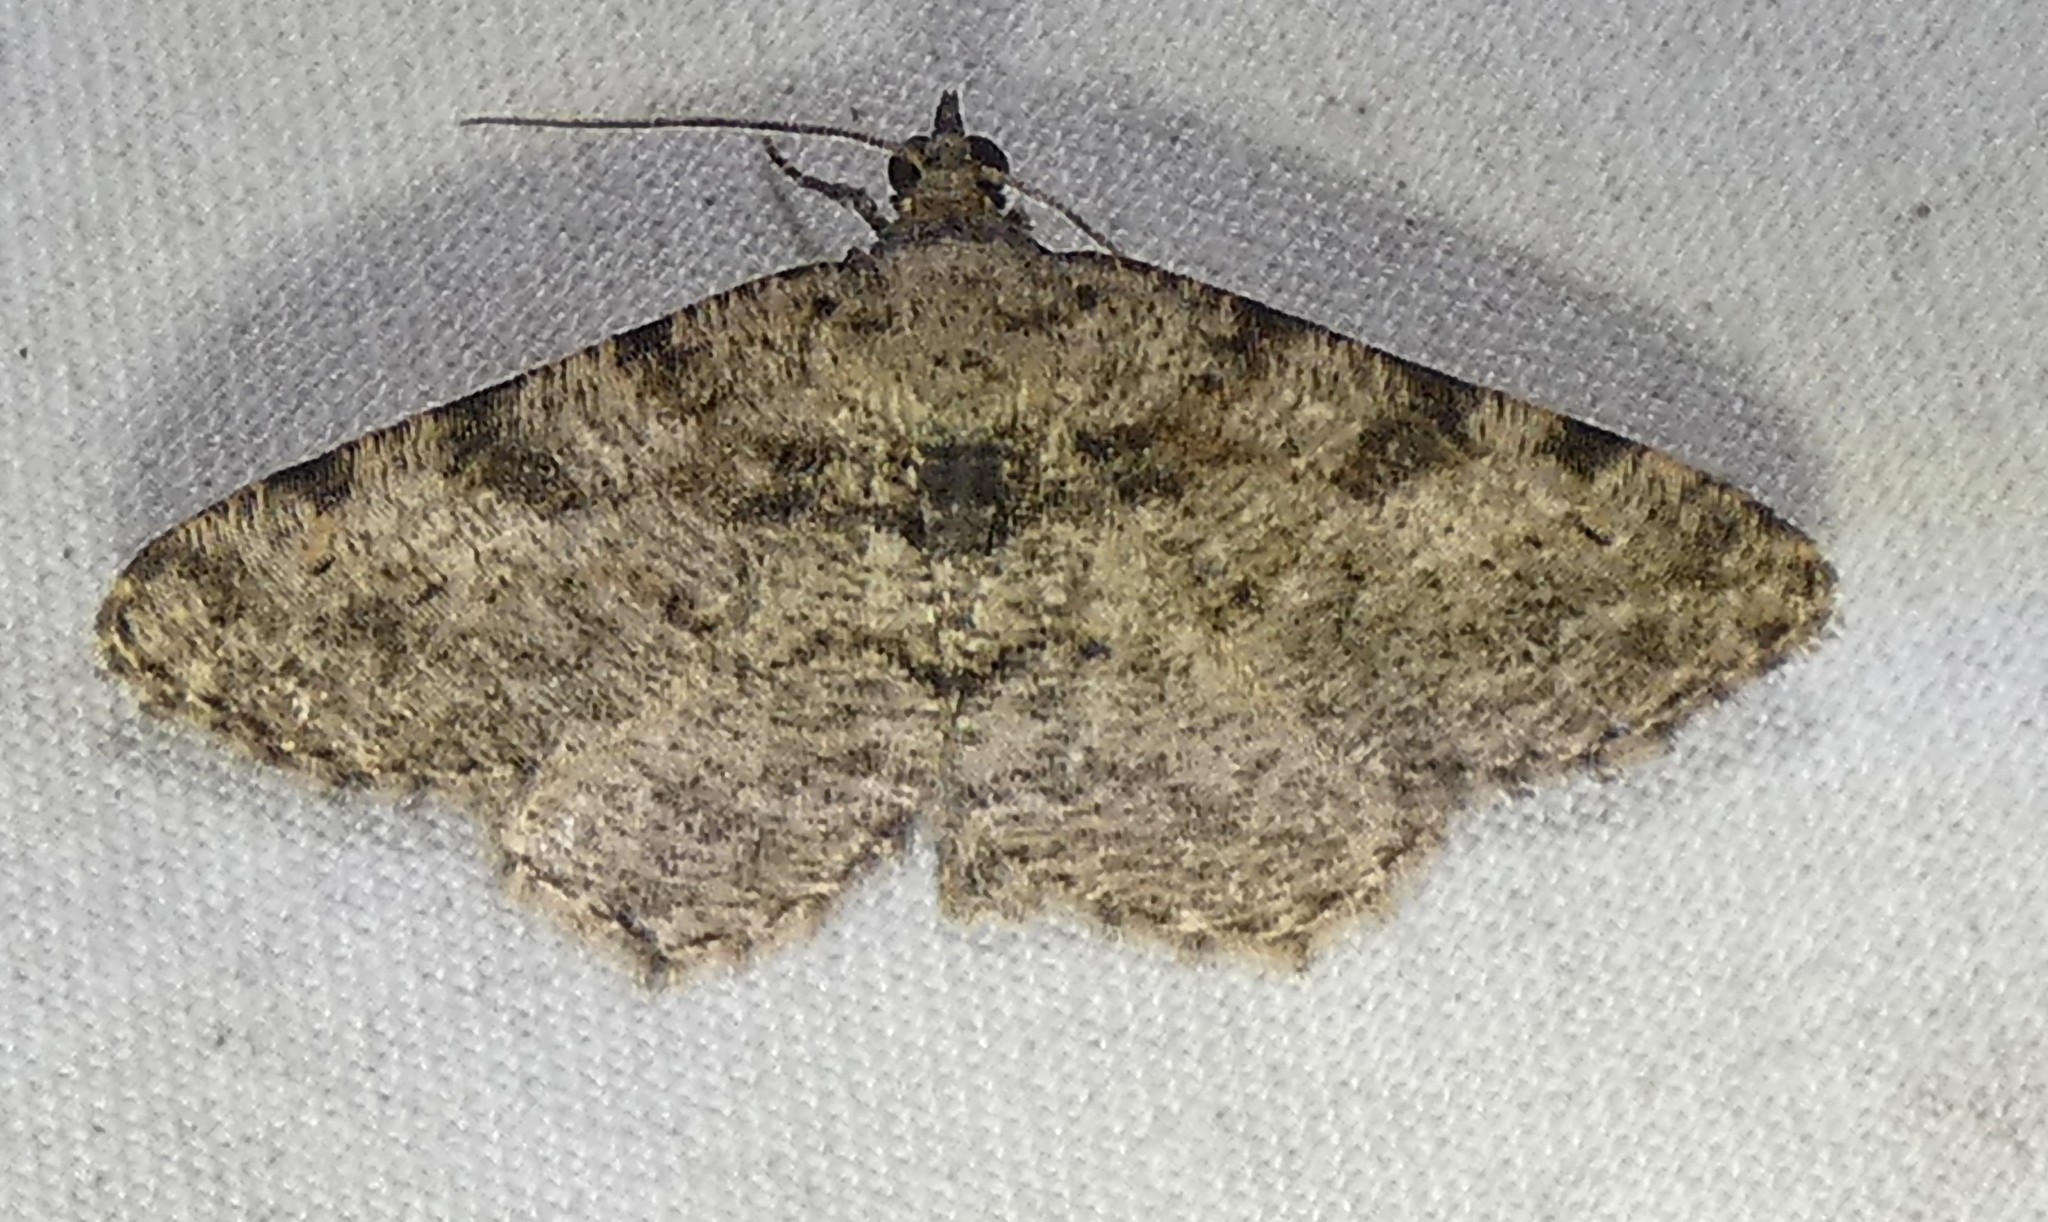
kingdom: Animalia
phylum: Arthropoda
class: Insecta
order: Lepidoptera
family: Geometridae
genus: Digrammia
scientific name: Digrammia gnophosaria
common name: Hollow-spotted angle
